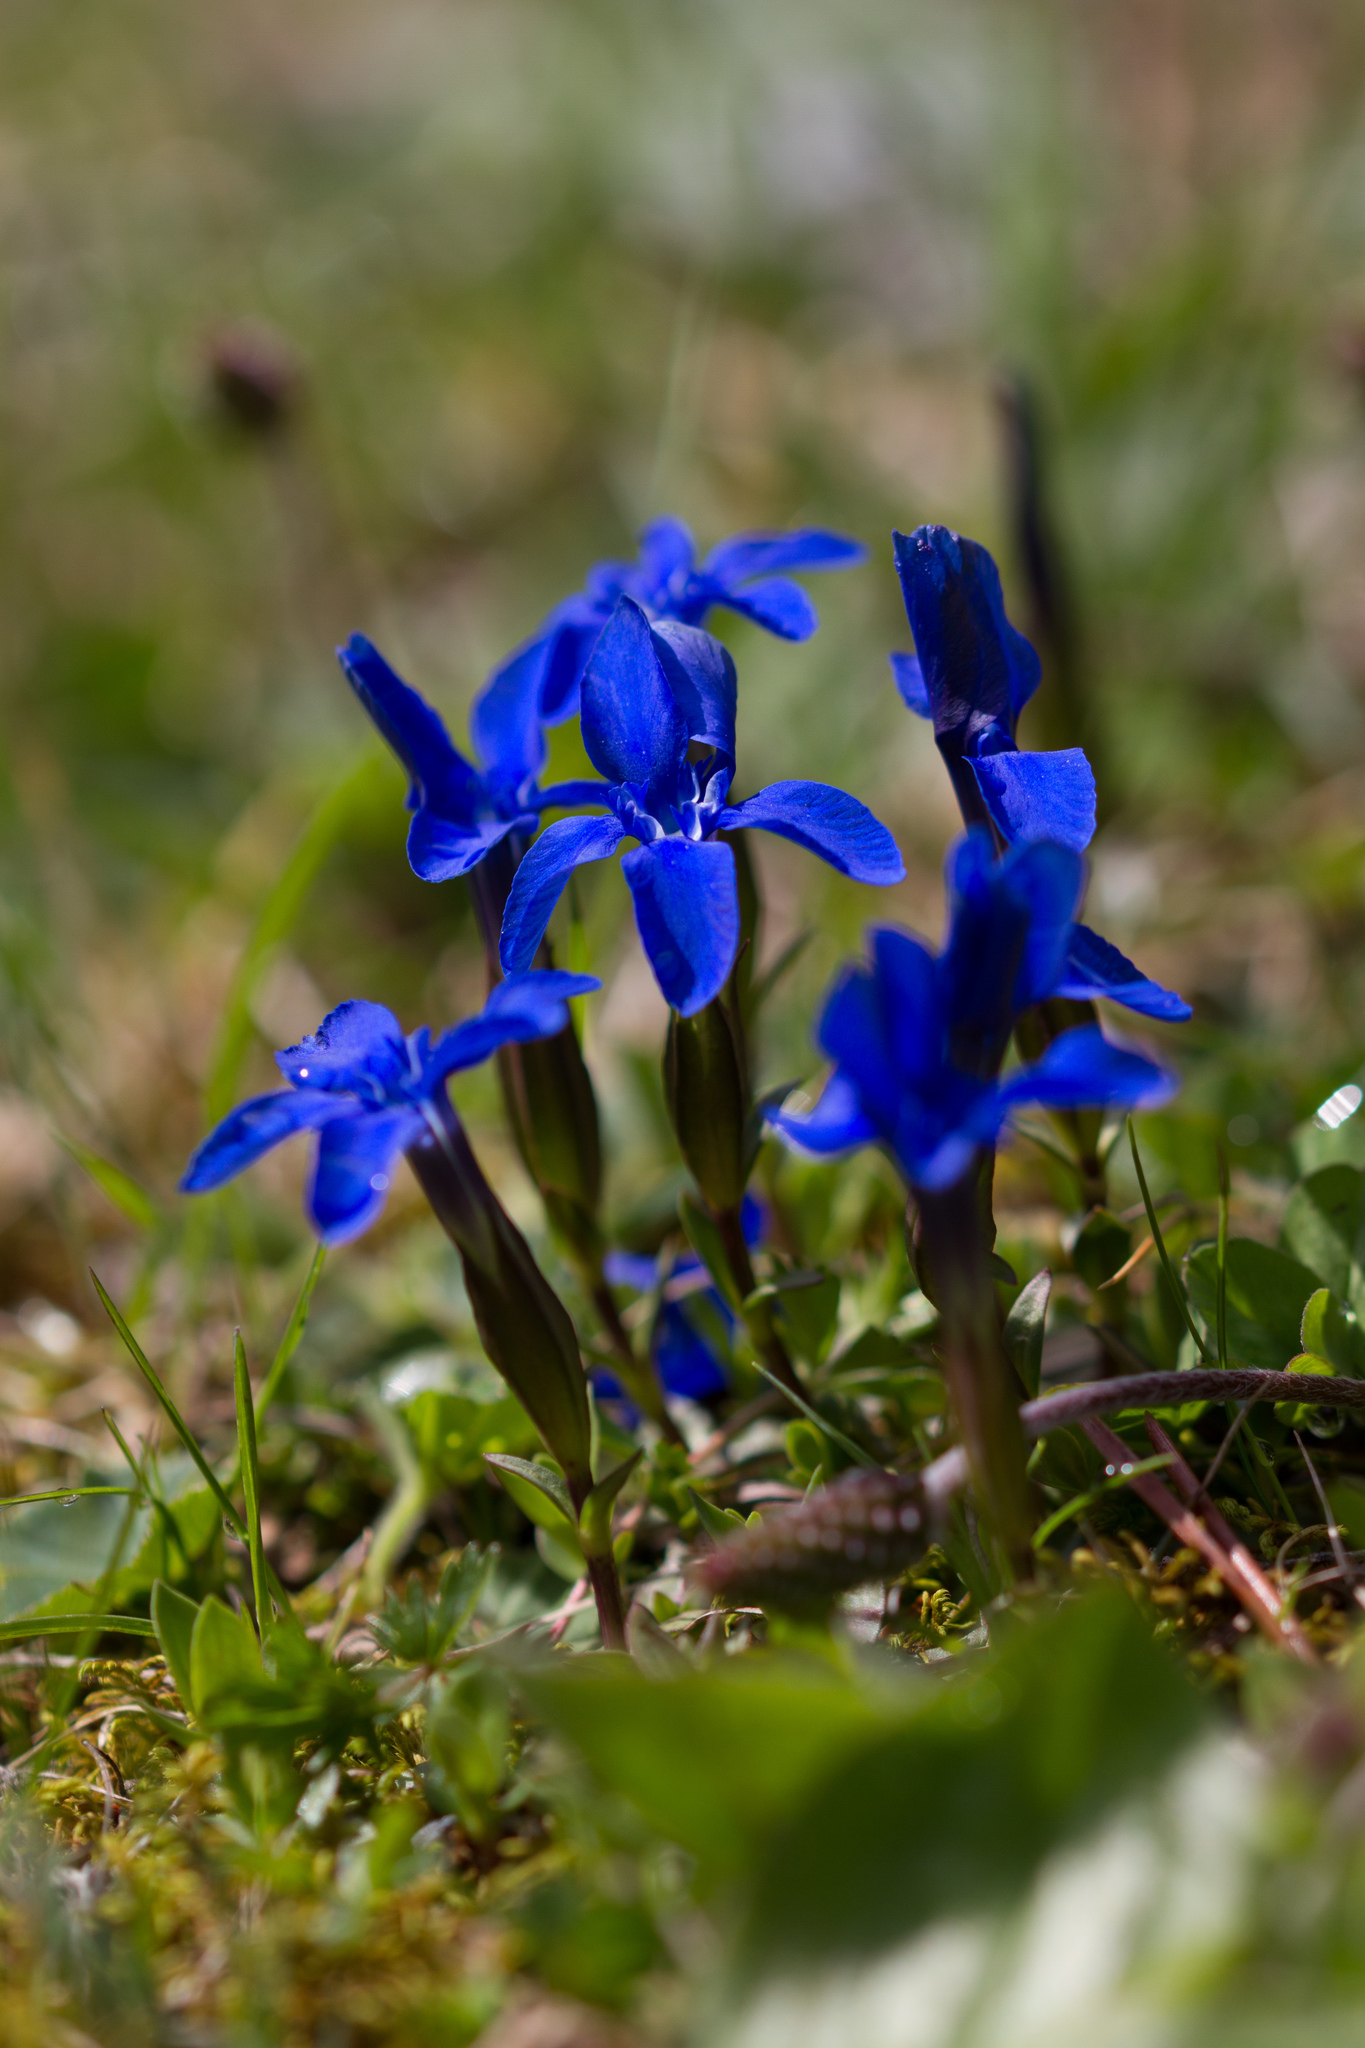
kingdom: Plantae
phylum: Tracheophyta
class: Magnoliopsida
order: Gentianales
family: Gentianaceae
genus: Gentiana
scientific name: Gentiana verna
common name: Spring gentian
